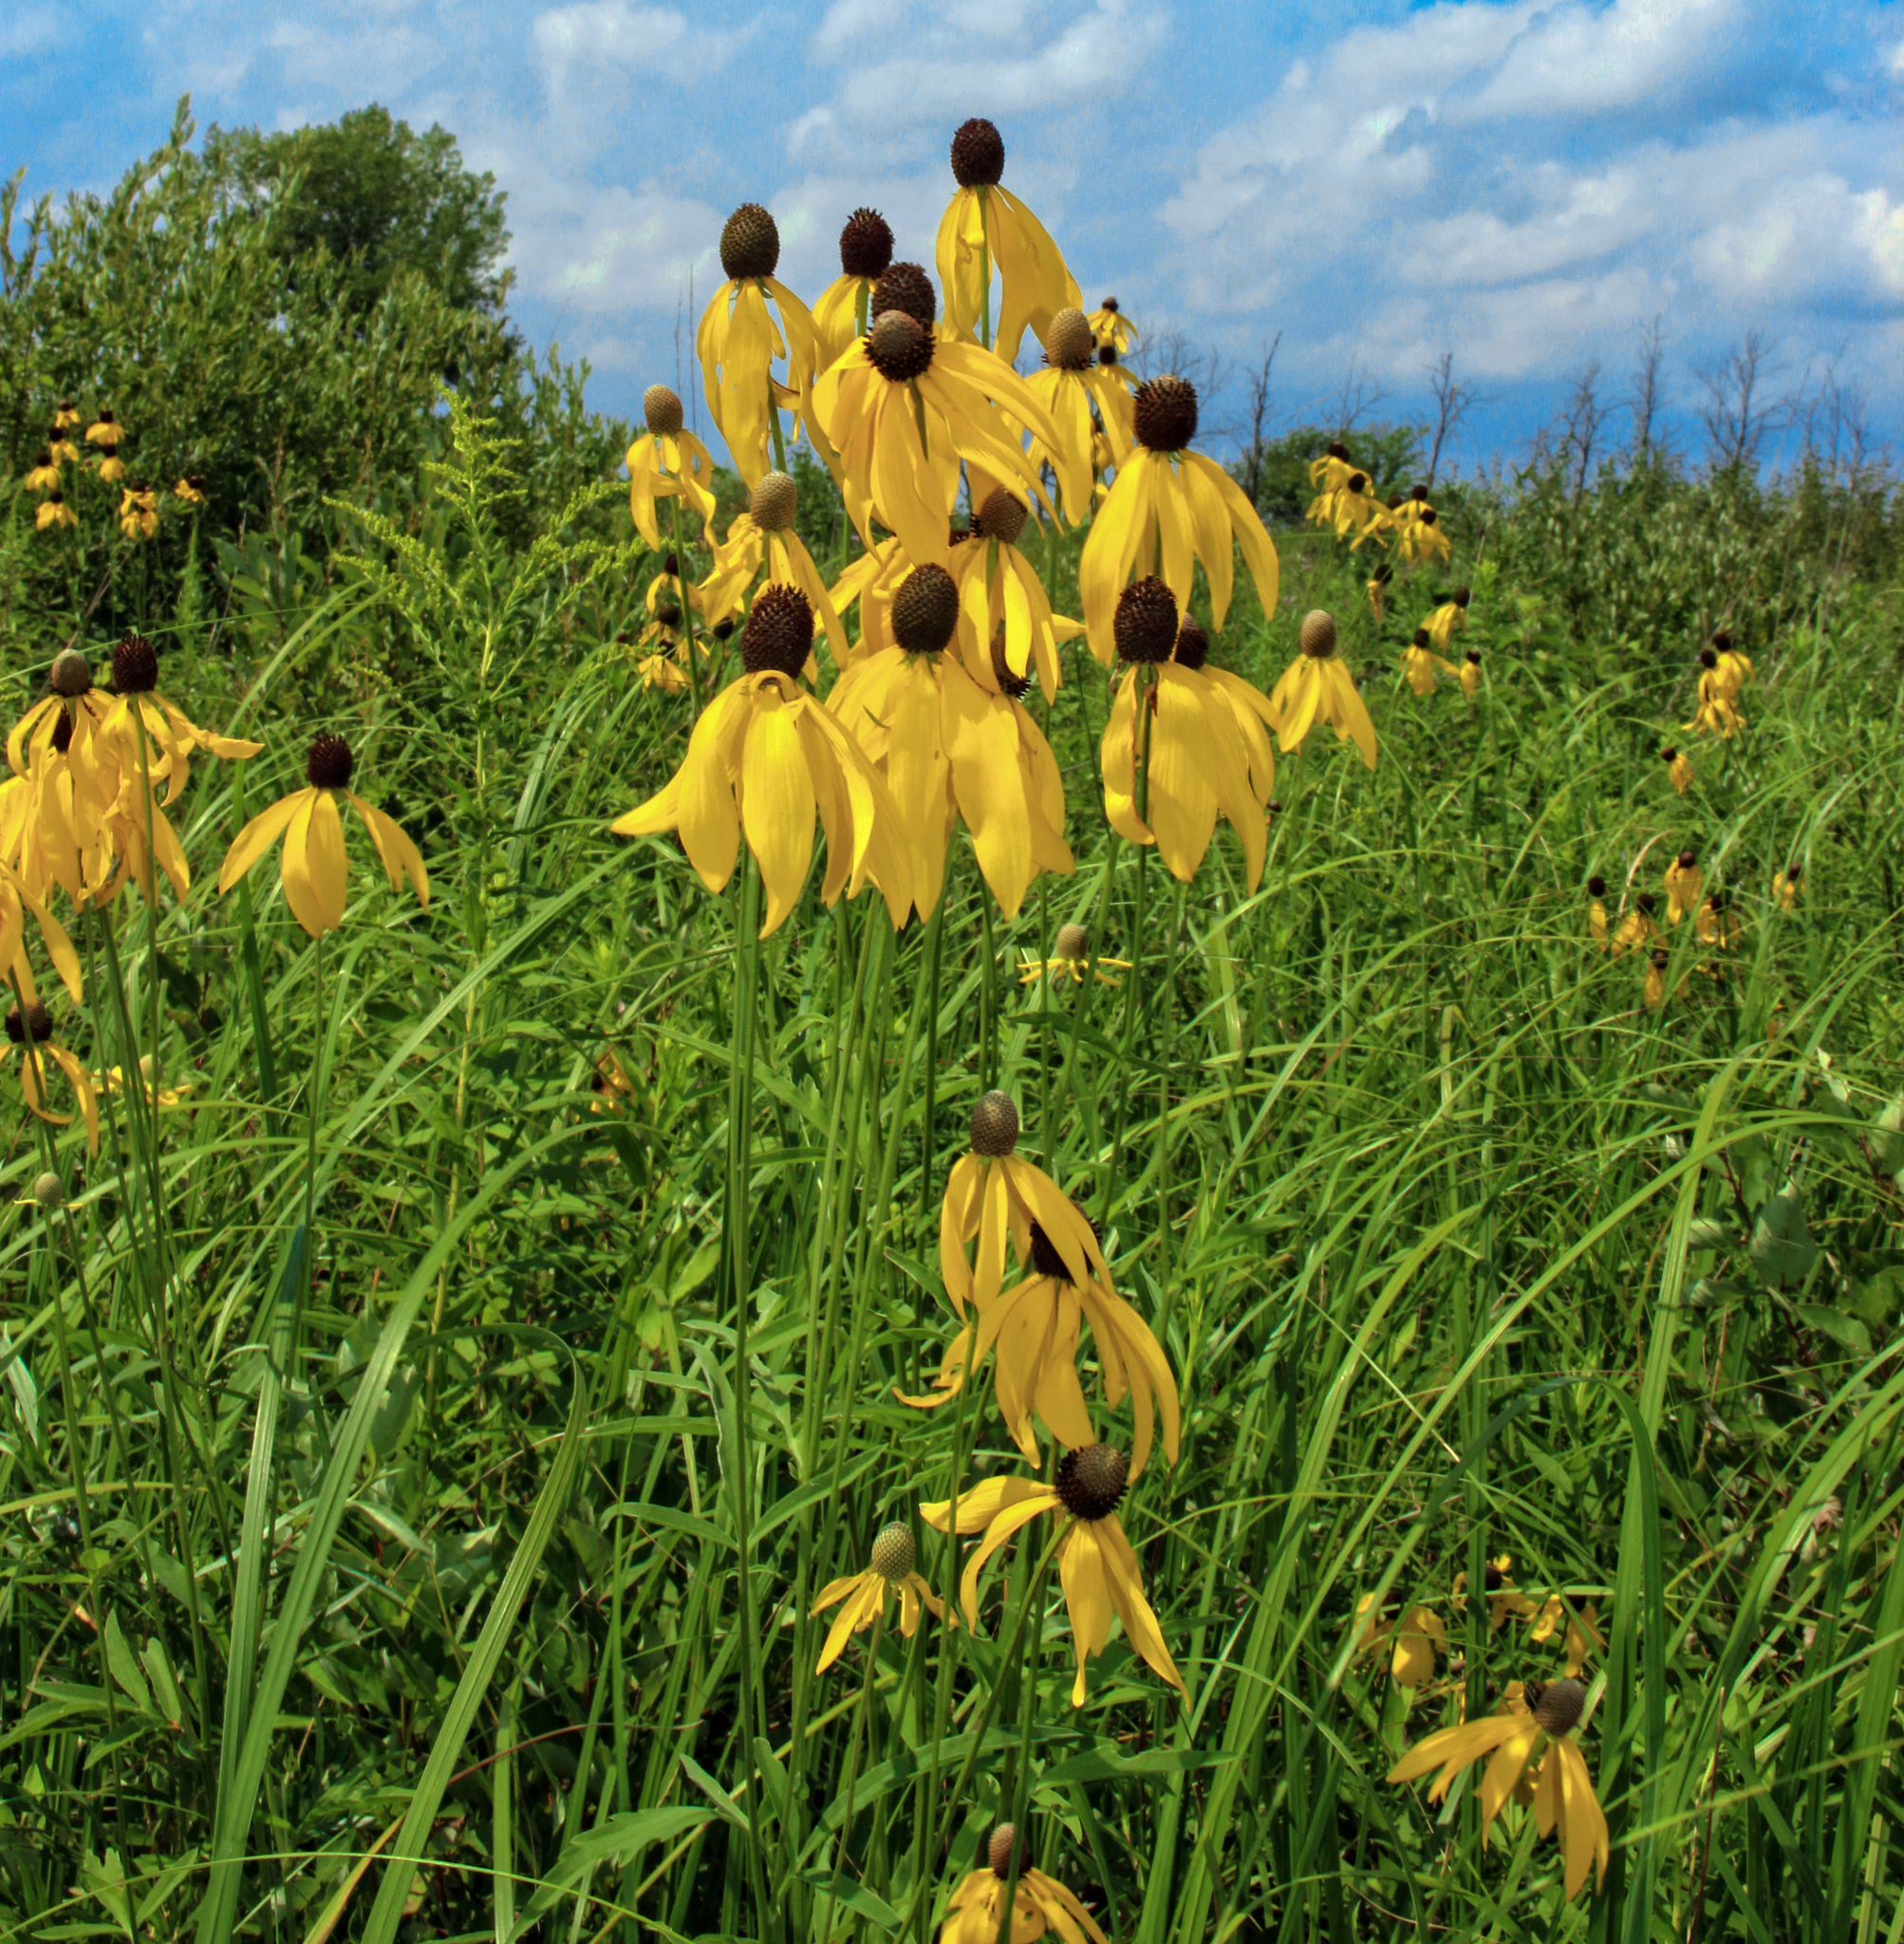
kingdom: Plantae
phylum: Tracheophyta
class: Magnoliopsida
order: Asterales
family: Asteraceae
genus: Ratibida
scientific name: Ratibida pinnata
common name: Drooping prairie-coneflower
